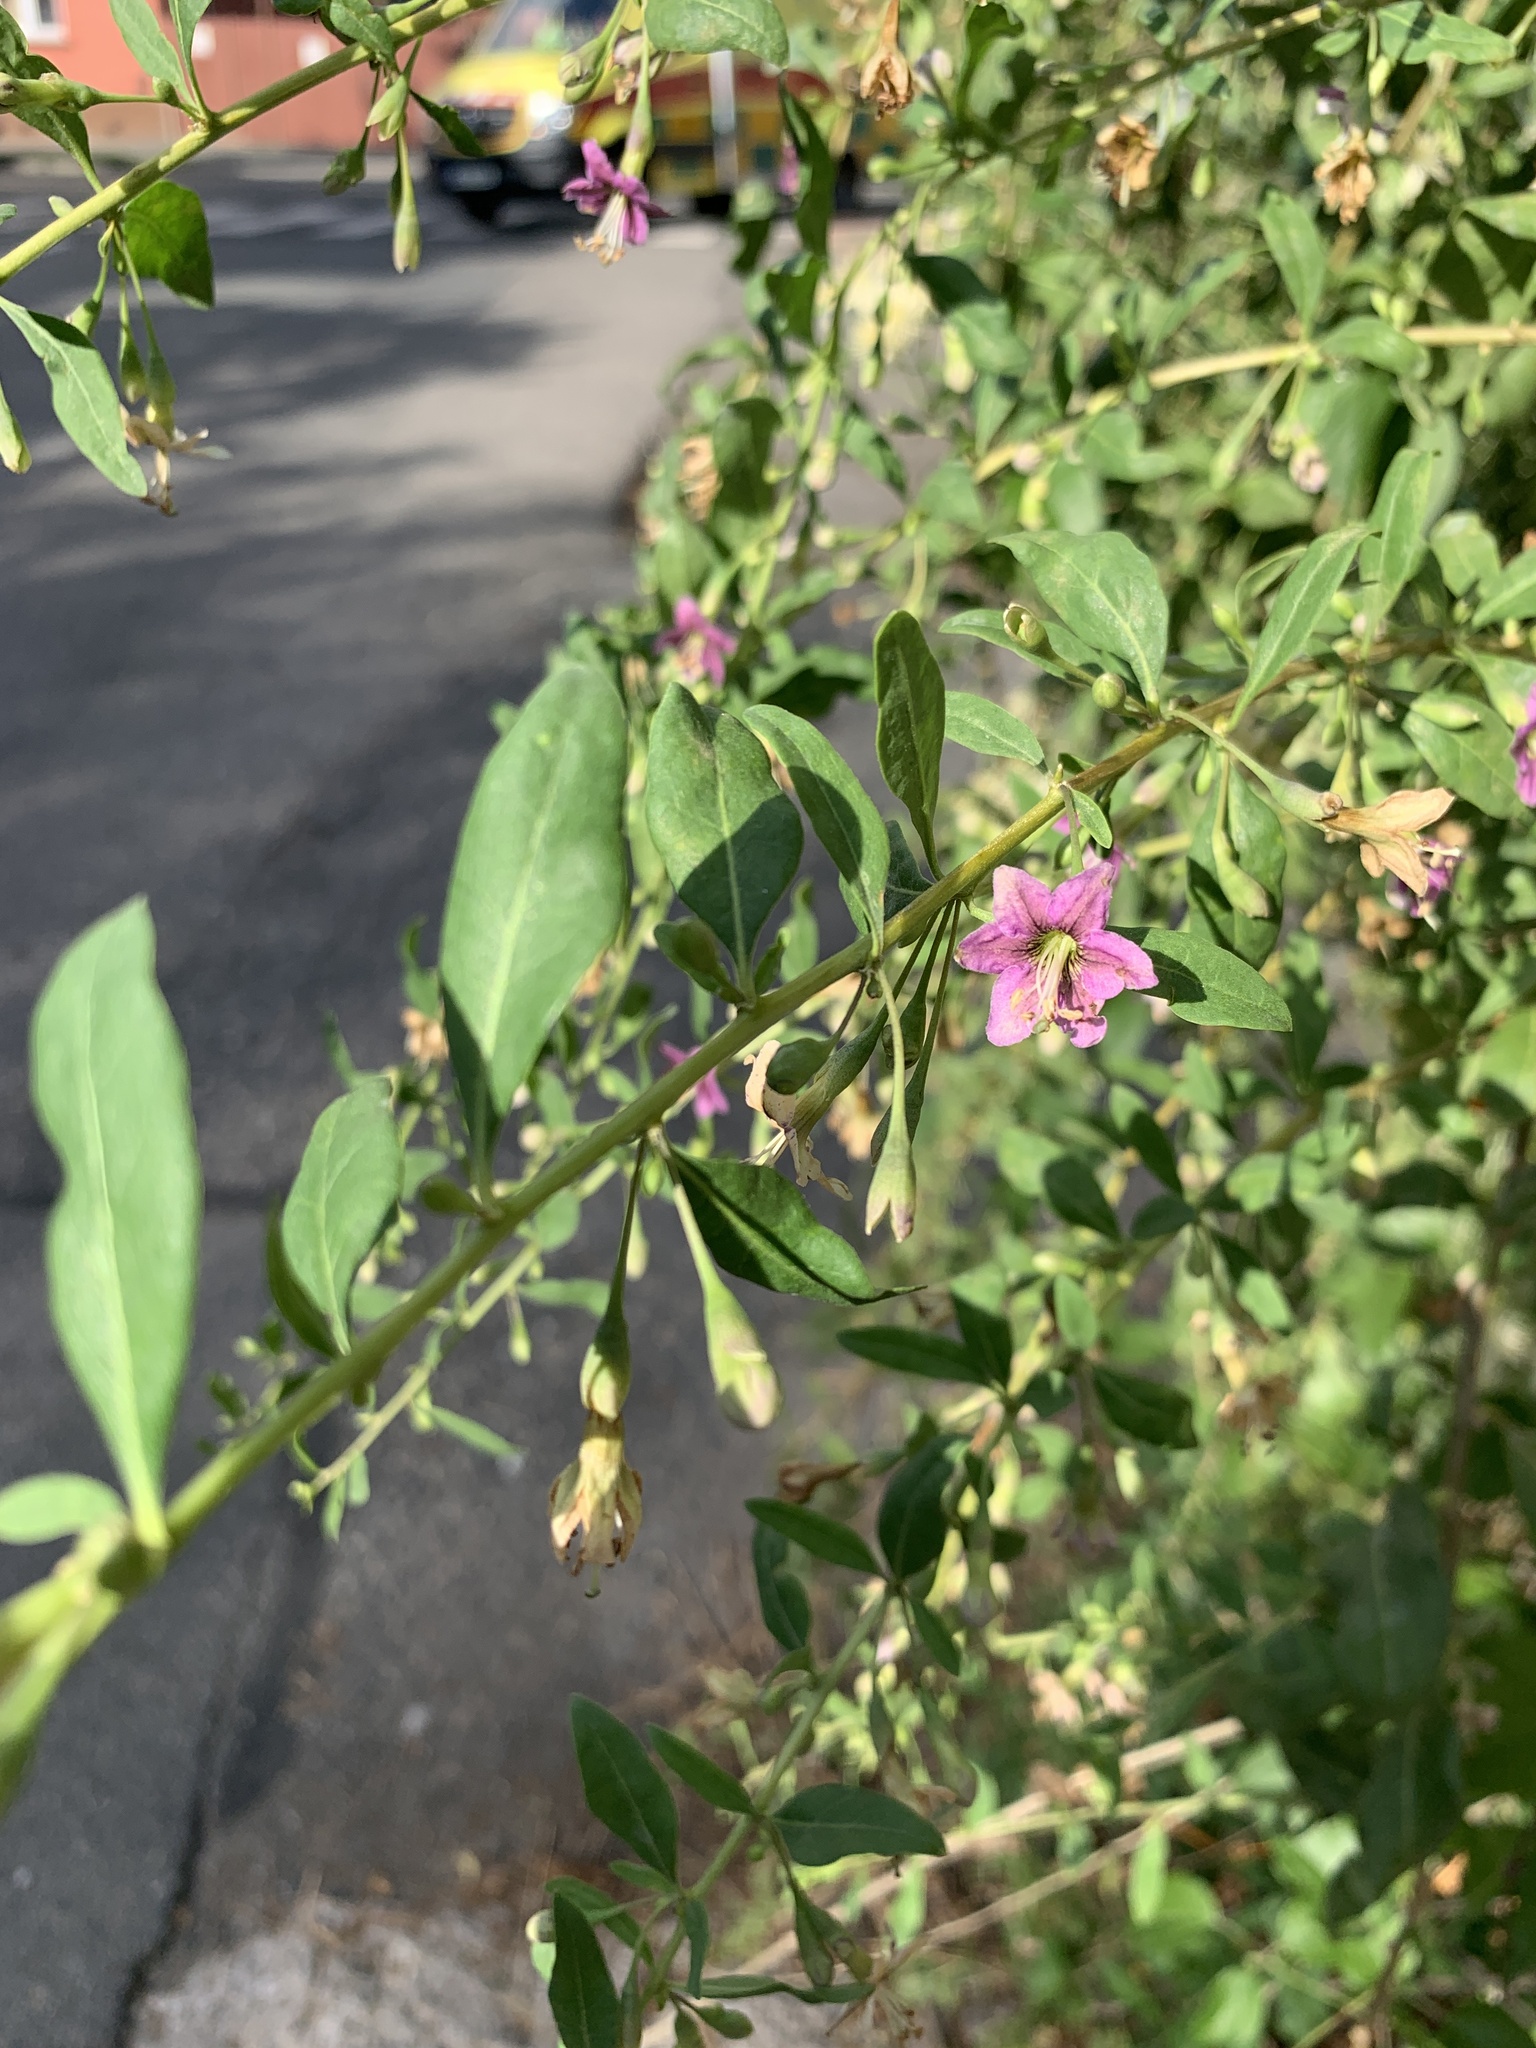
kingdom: Plantae
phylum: Tracheophyta
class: Magnoliopsida
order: Solanales
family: Solanaceae
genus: Lycium
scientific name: Lycium barbarum
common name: Duke of argyll's teaplant
